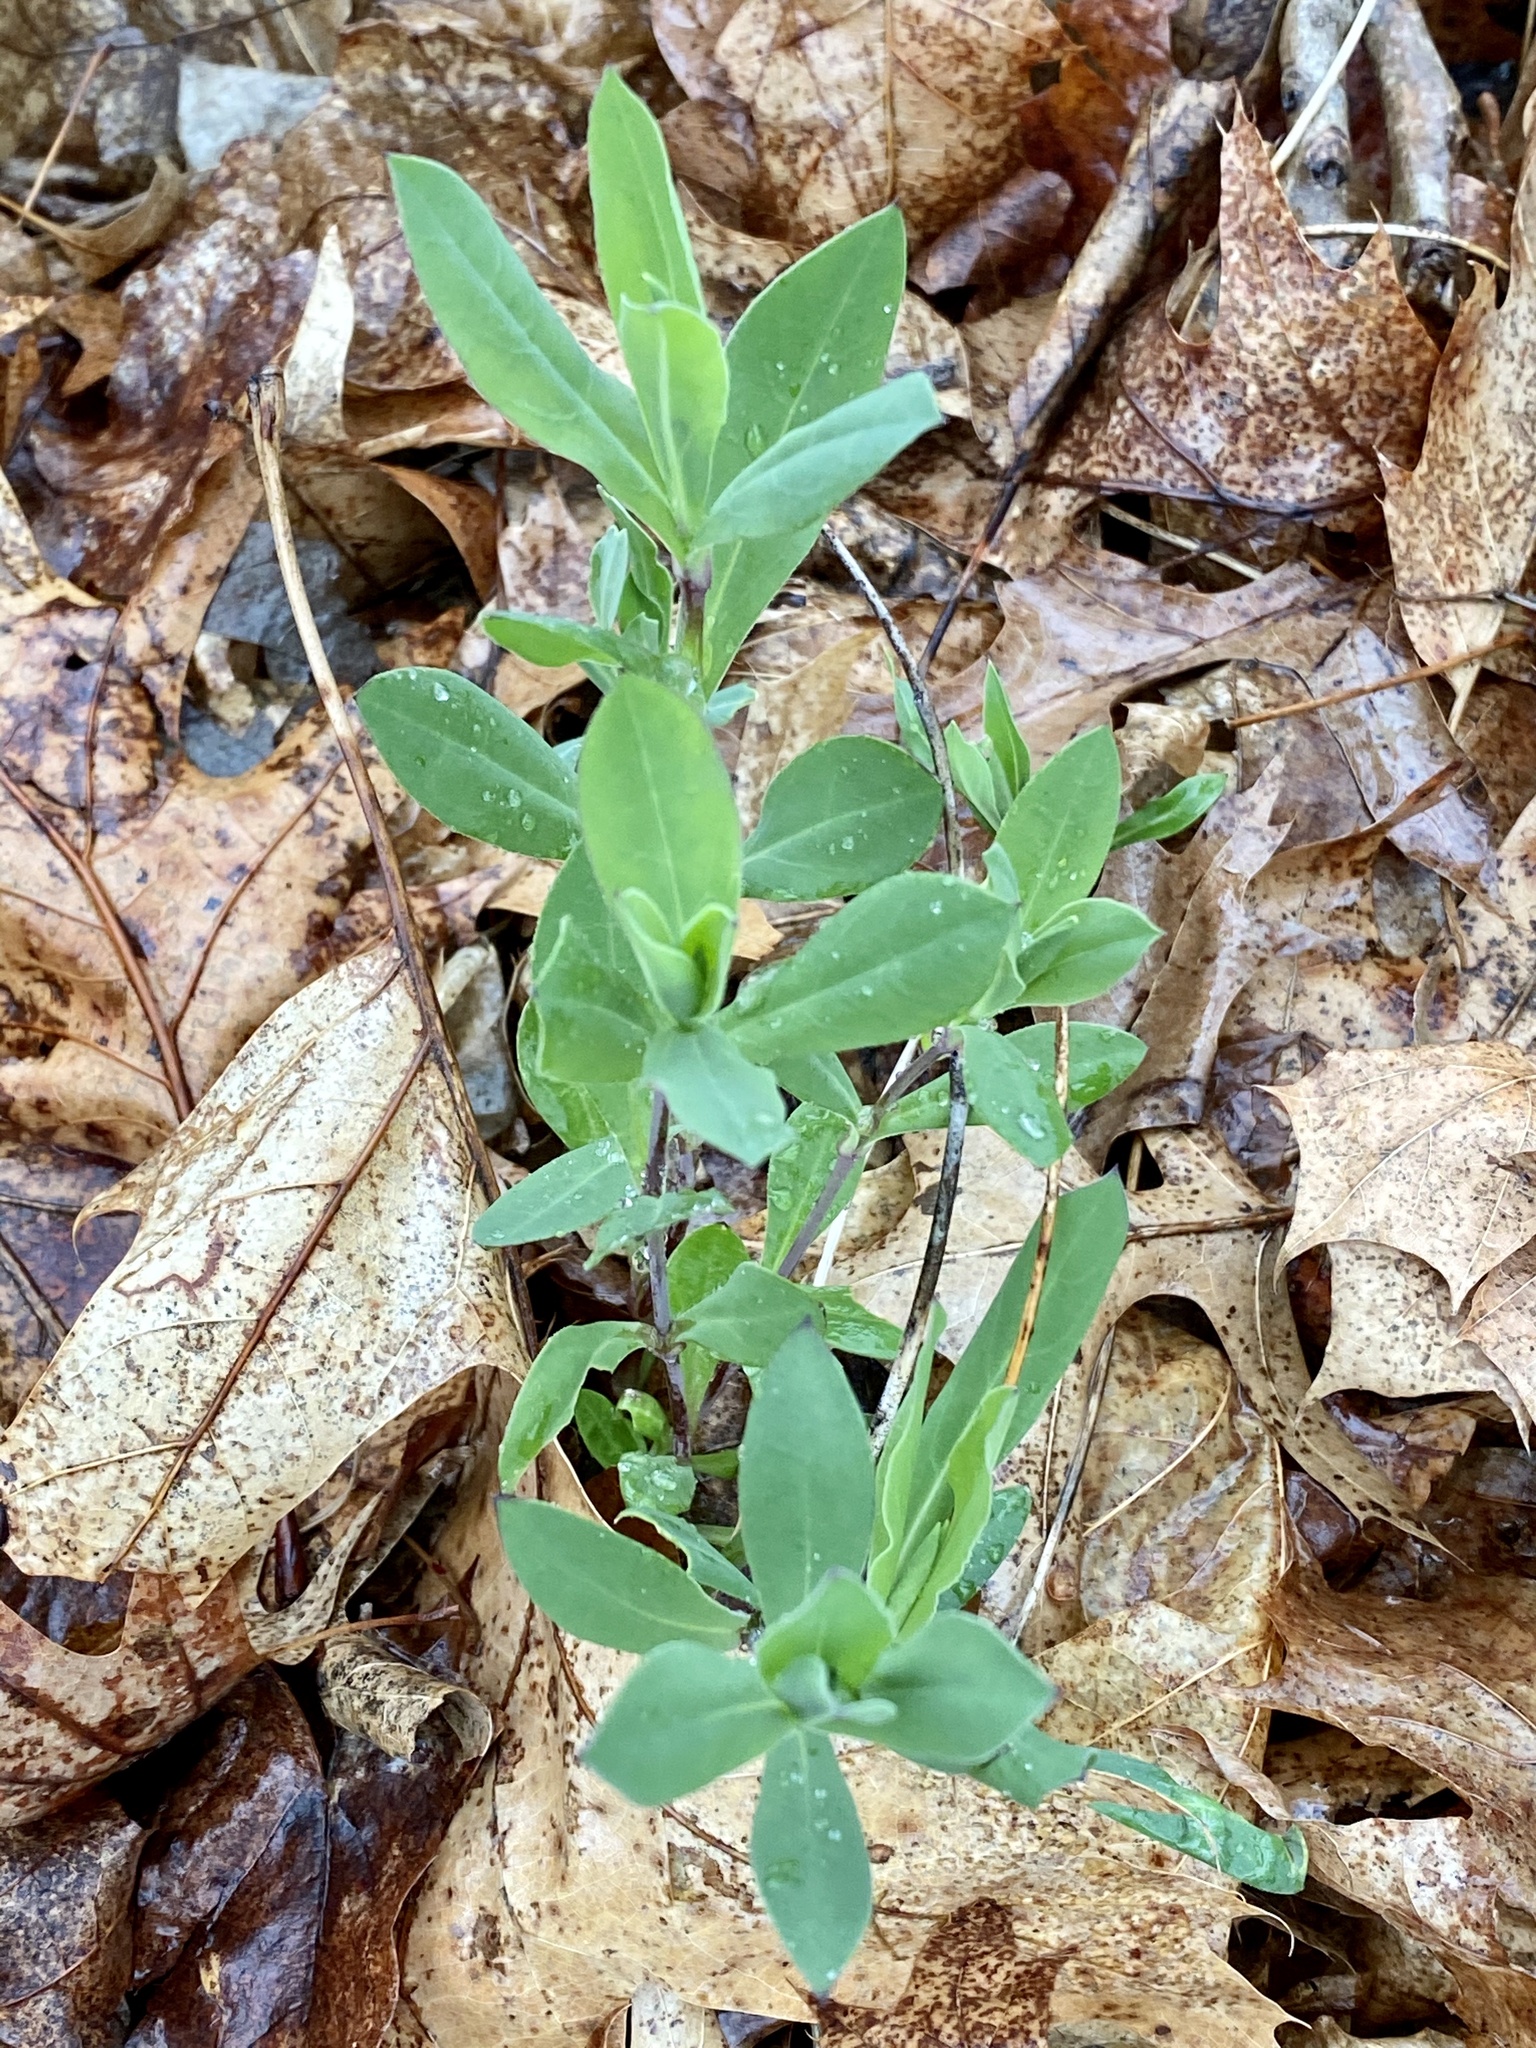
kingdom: Plantae
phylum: Tracheophyta
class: Magnoliopsida
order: Caryophyllales
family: Caryophyllaceae
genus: Silene
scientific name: Silene vulgaris
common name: Bladder campion
